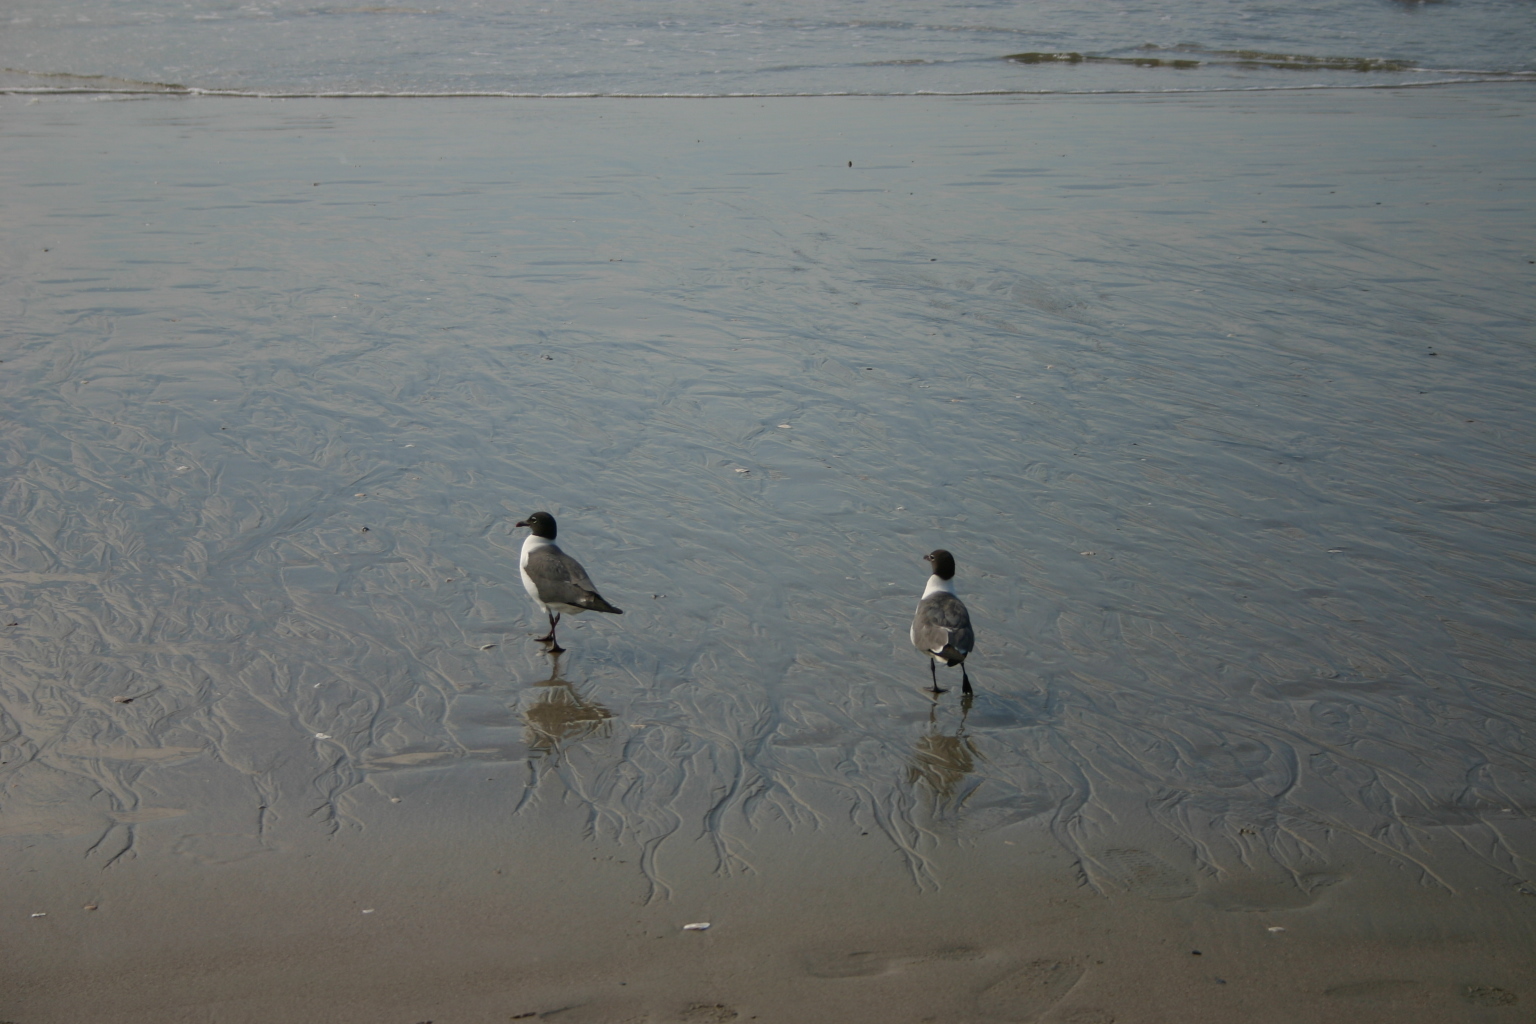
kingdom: Animalia
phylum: Chordata
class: Aves
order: Charadriiformes
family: Laridae
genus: Leucophaeus
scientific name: Leucophaeus atricilla
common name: Laughing gull
